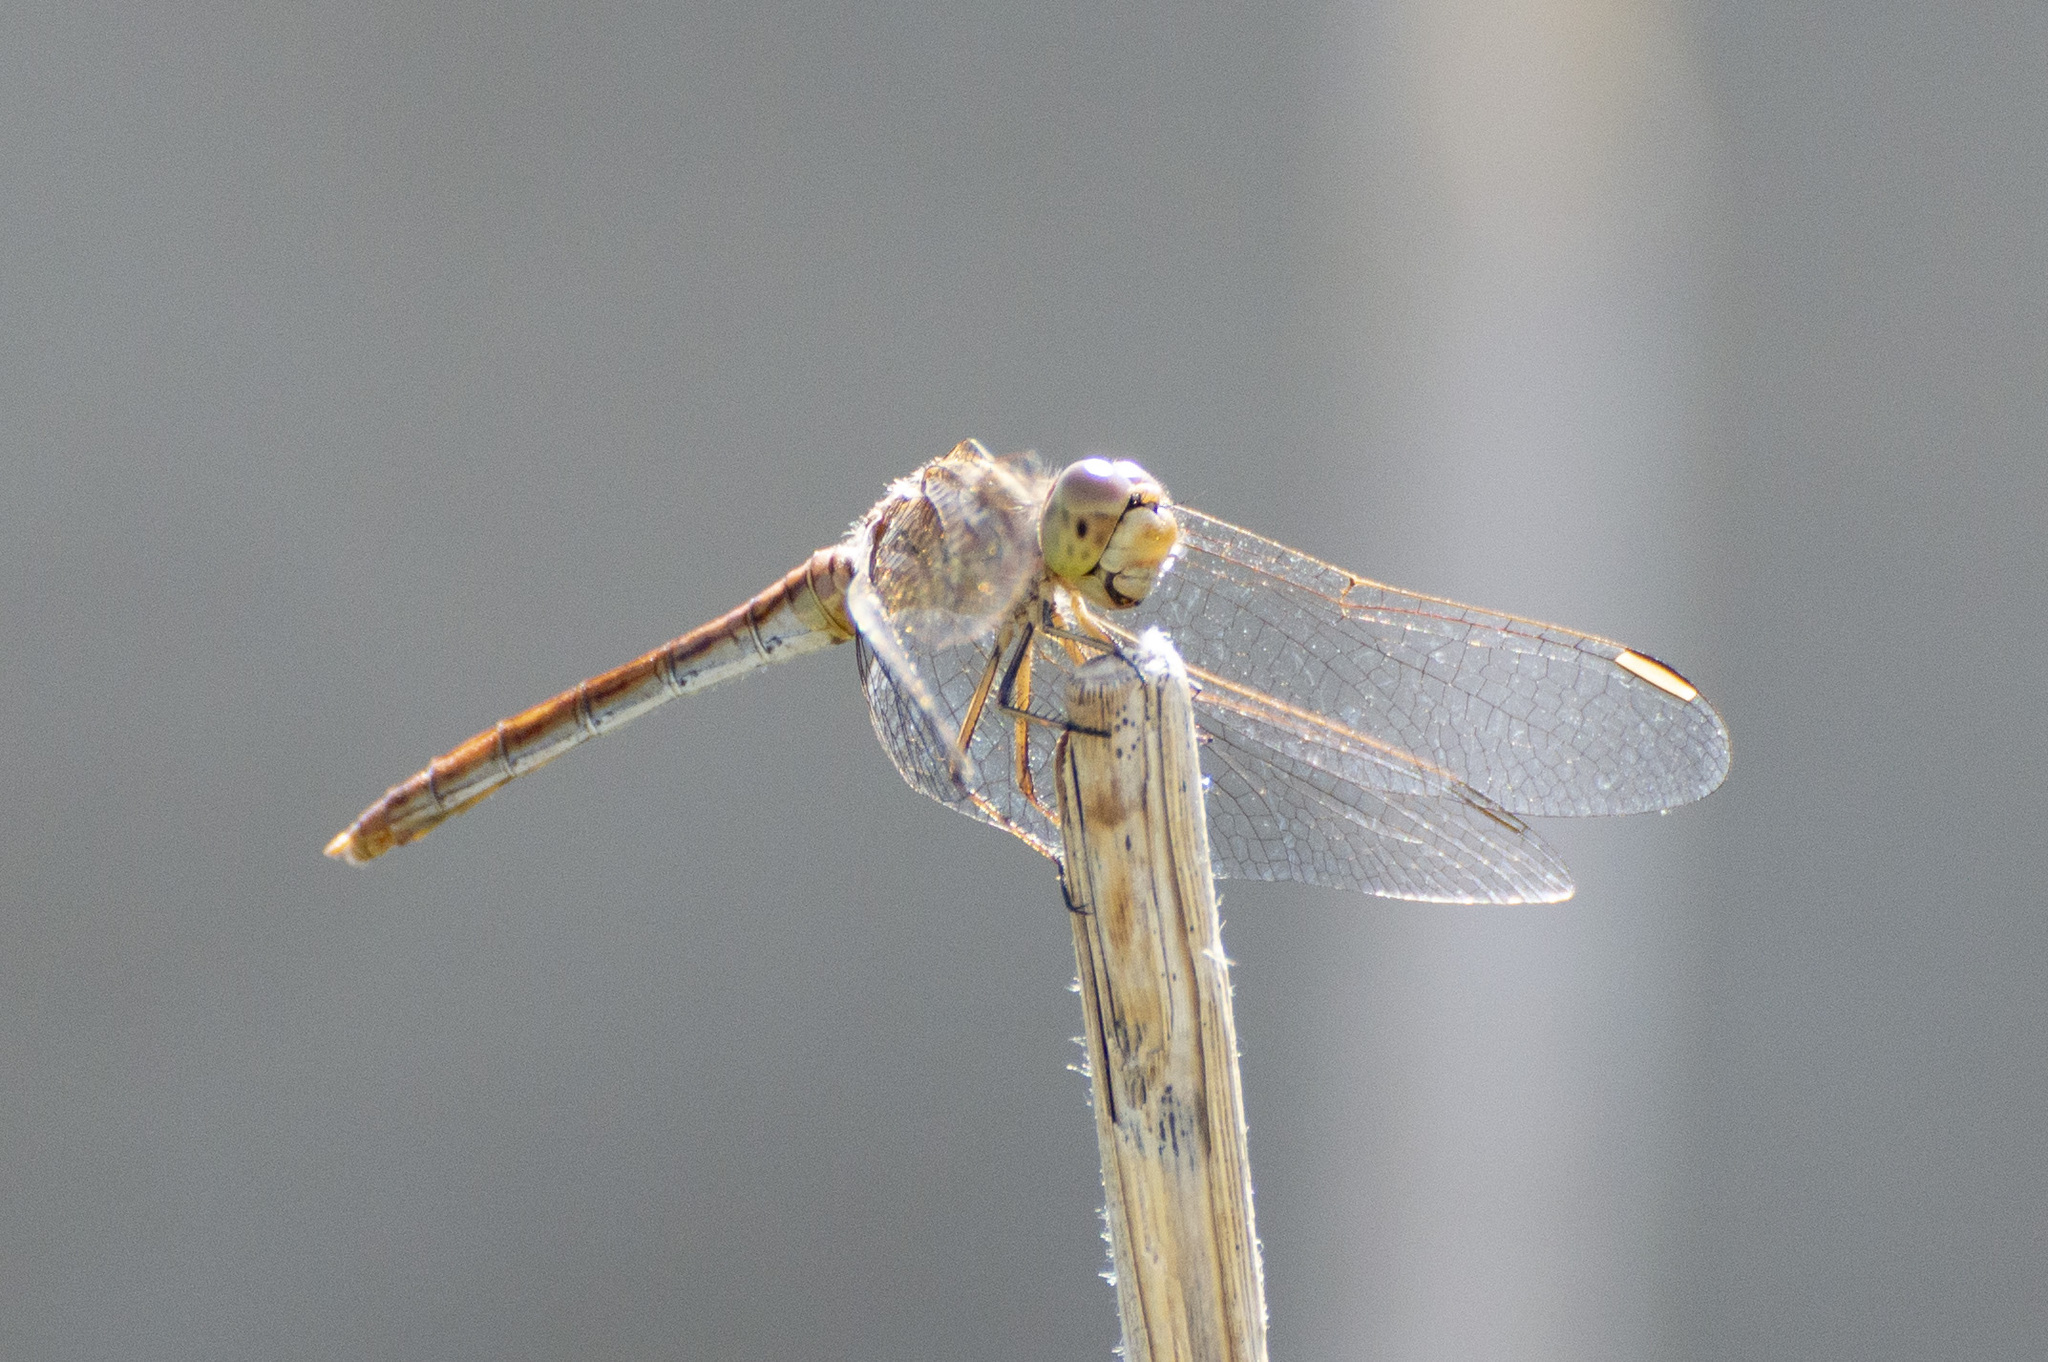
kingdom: Animalia
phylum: Arthropoda
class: Insecta
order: Odonata
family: Libellulidae
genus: Sympetrum
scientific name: Sympetrum meridionale
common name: Southern darter
